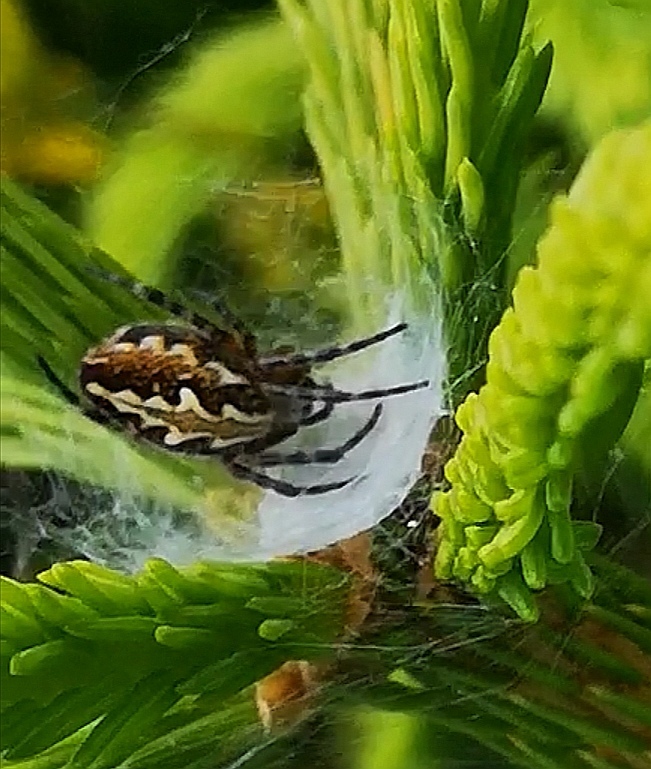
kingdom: Animalia
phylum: Arthropoda
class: Arachnida
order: Araneae
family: Araneidae
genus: Aculepeira
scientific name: Aculepeira ceropegia
